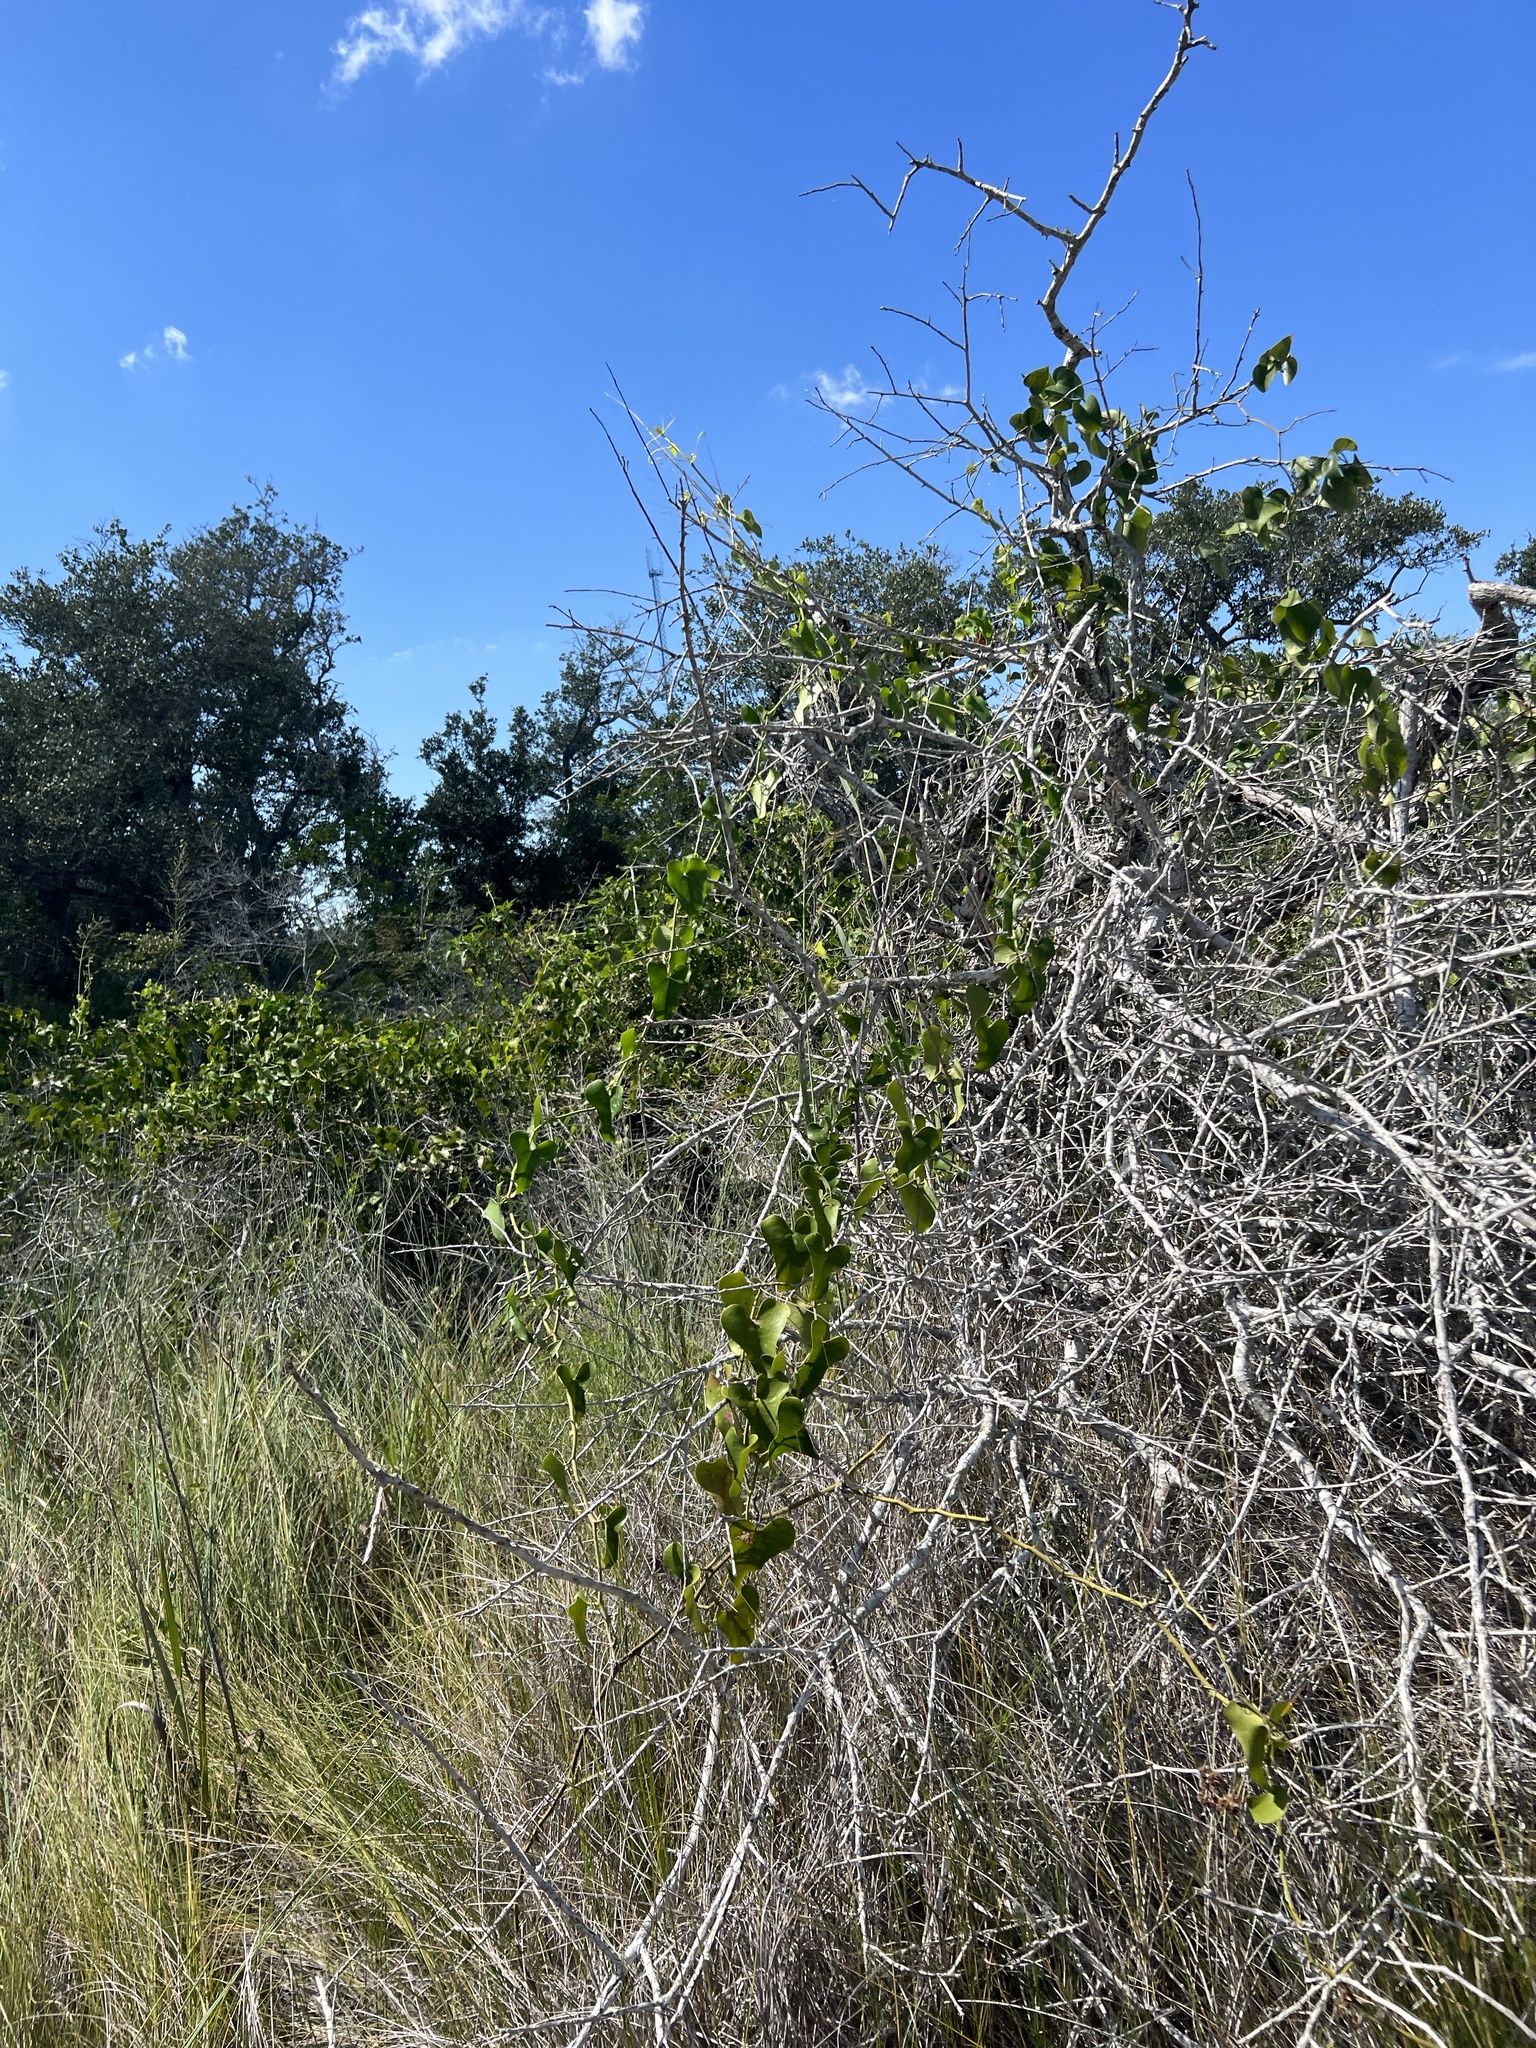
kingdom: Plantae
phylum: Tracheophyta
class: Liliopsida
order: Liliales
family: Smilacaceae
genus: Smilax
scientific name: Smilax bona-nox
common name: Catbrier
